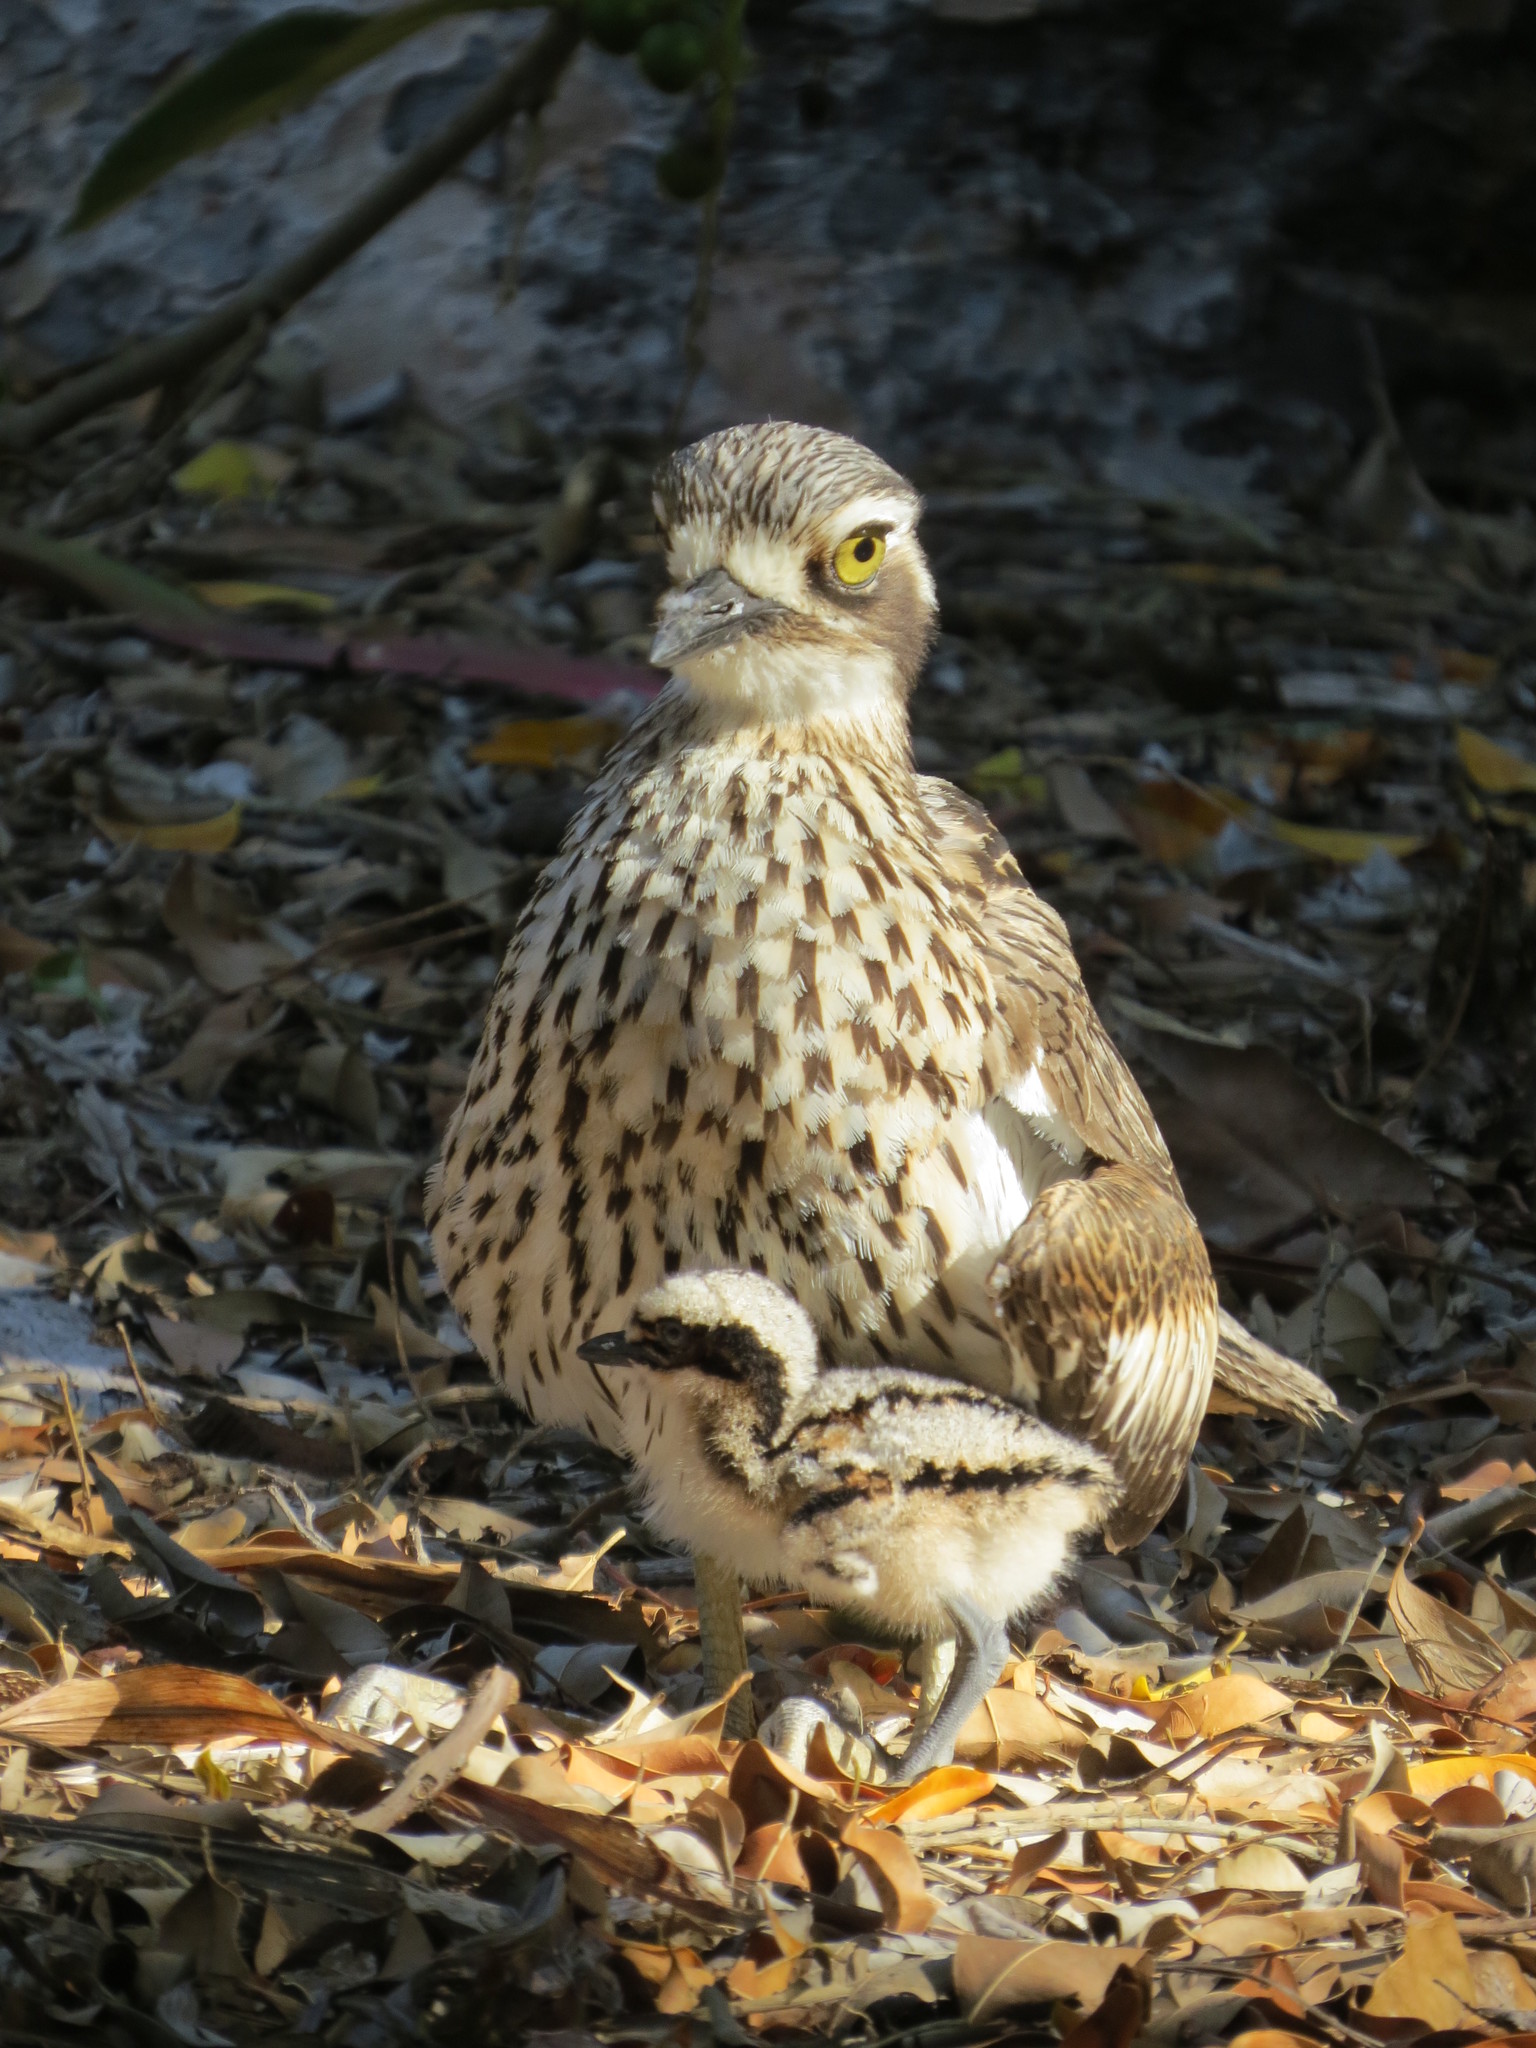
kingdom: Animalia
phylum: Chordata
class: Aves
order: Charadriiformes
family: Burhinidae
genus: Burhinus
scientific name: Burhinus grallarius
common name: Bush stone-curlew
